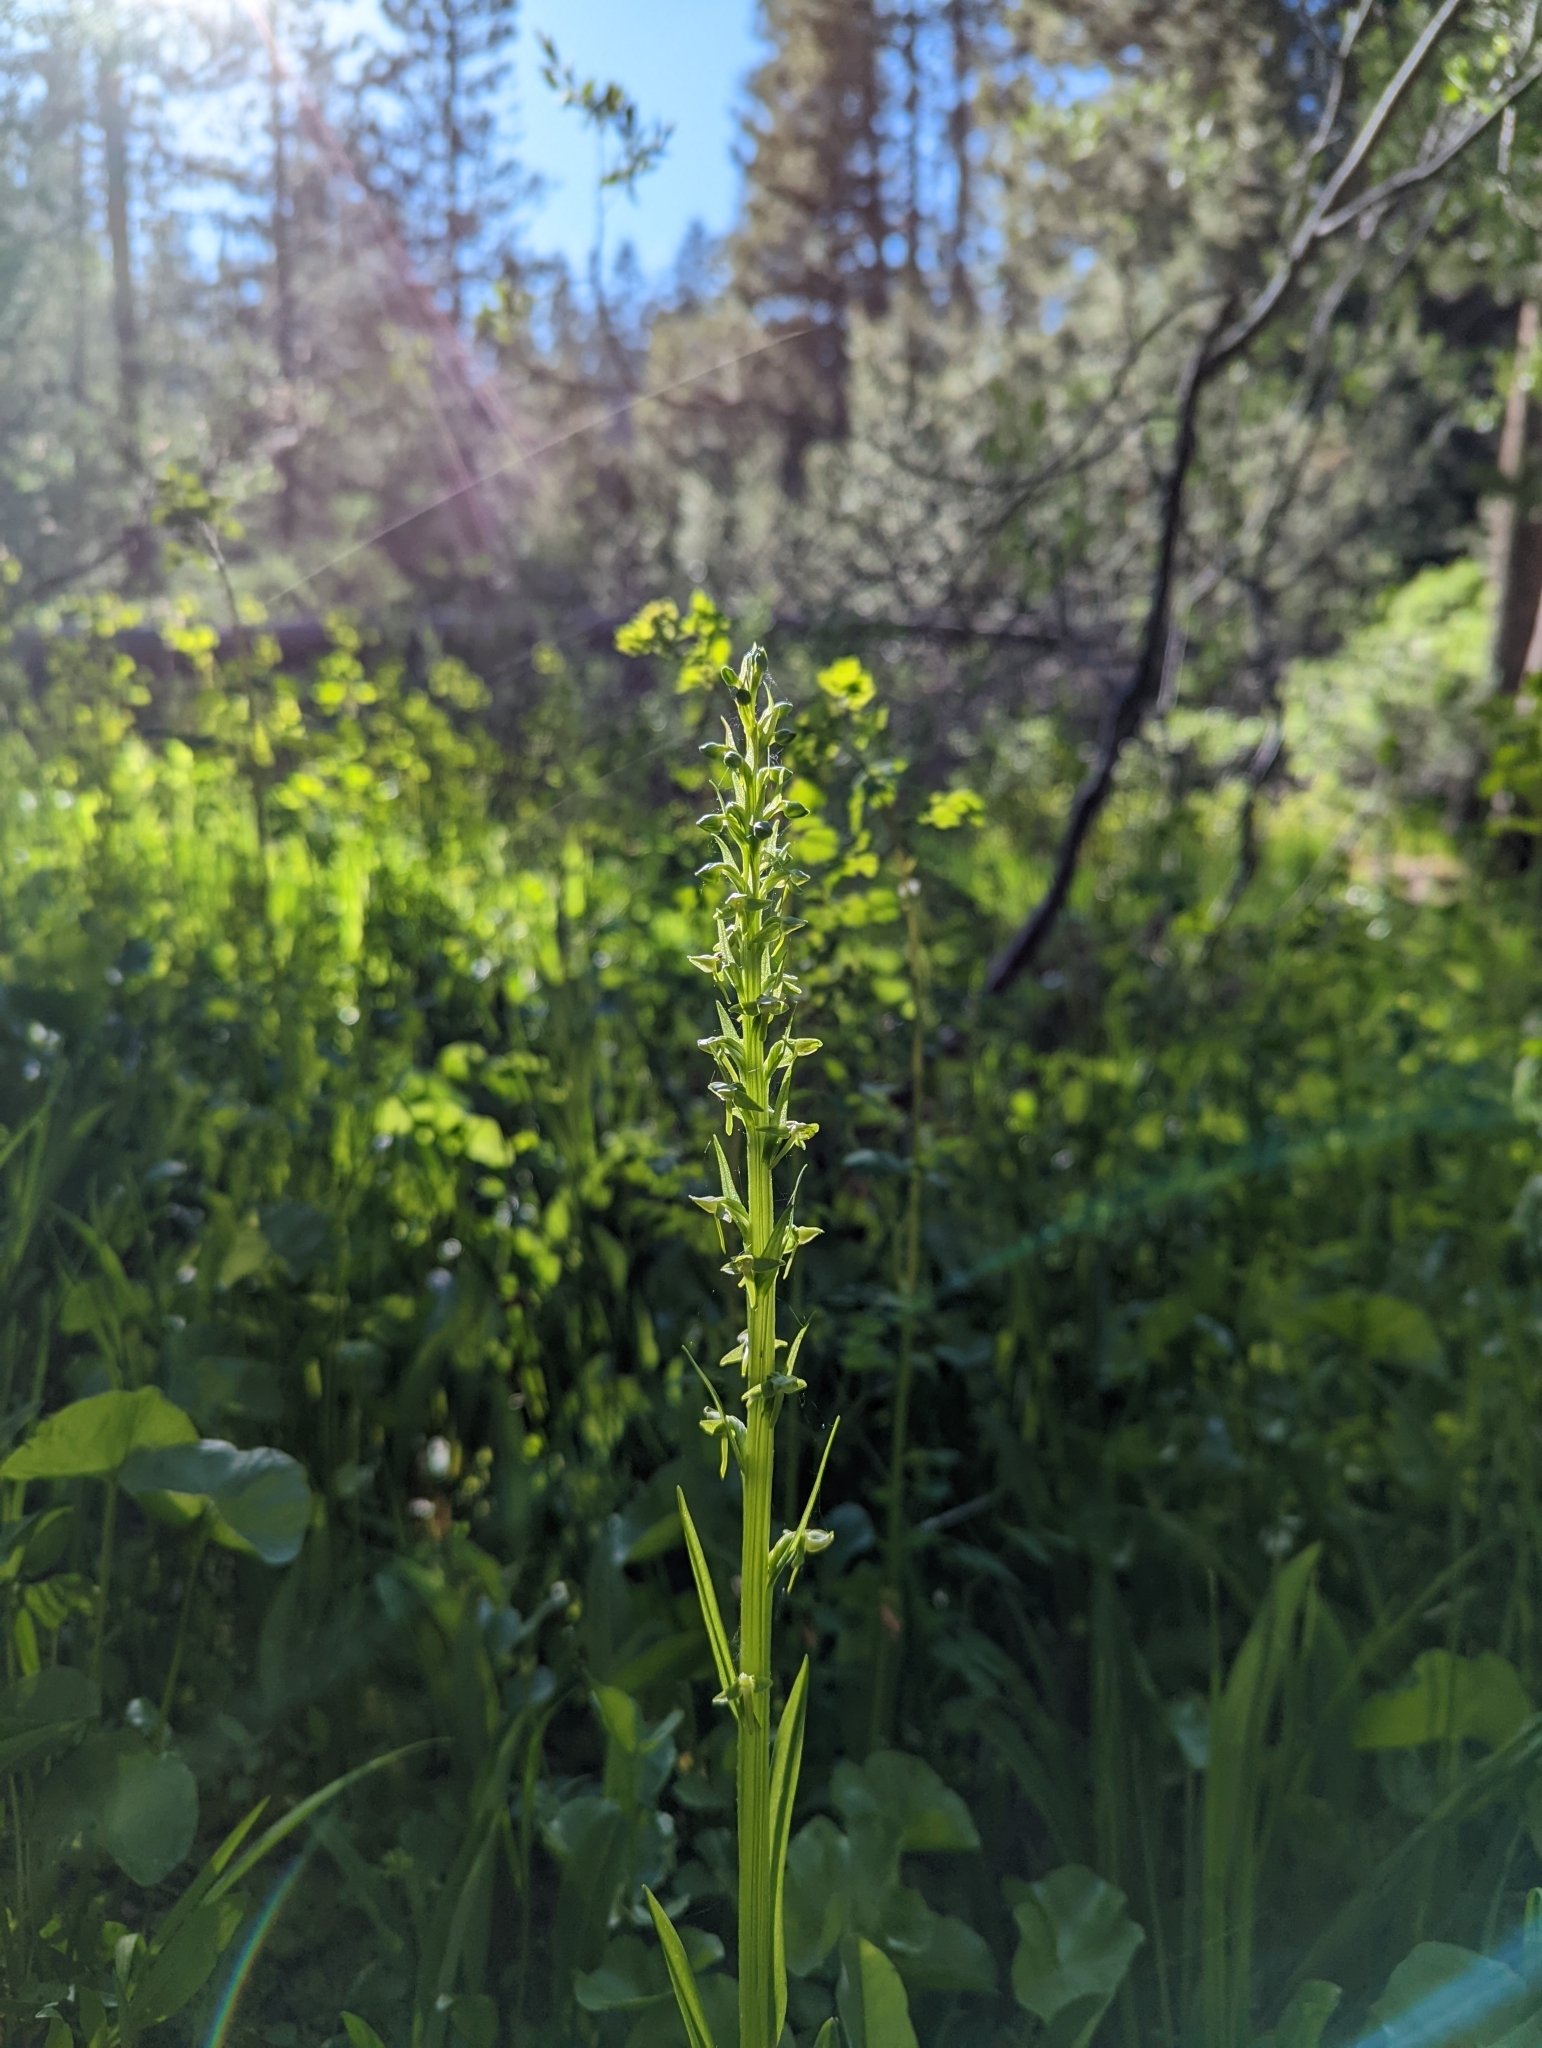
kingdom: Plantae
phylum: Tracheophyta
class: Liliopsida
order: Asparagales
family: Orchidaceae
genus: Platanthera
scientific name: Platanthera sparsiflora
